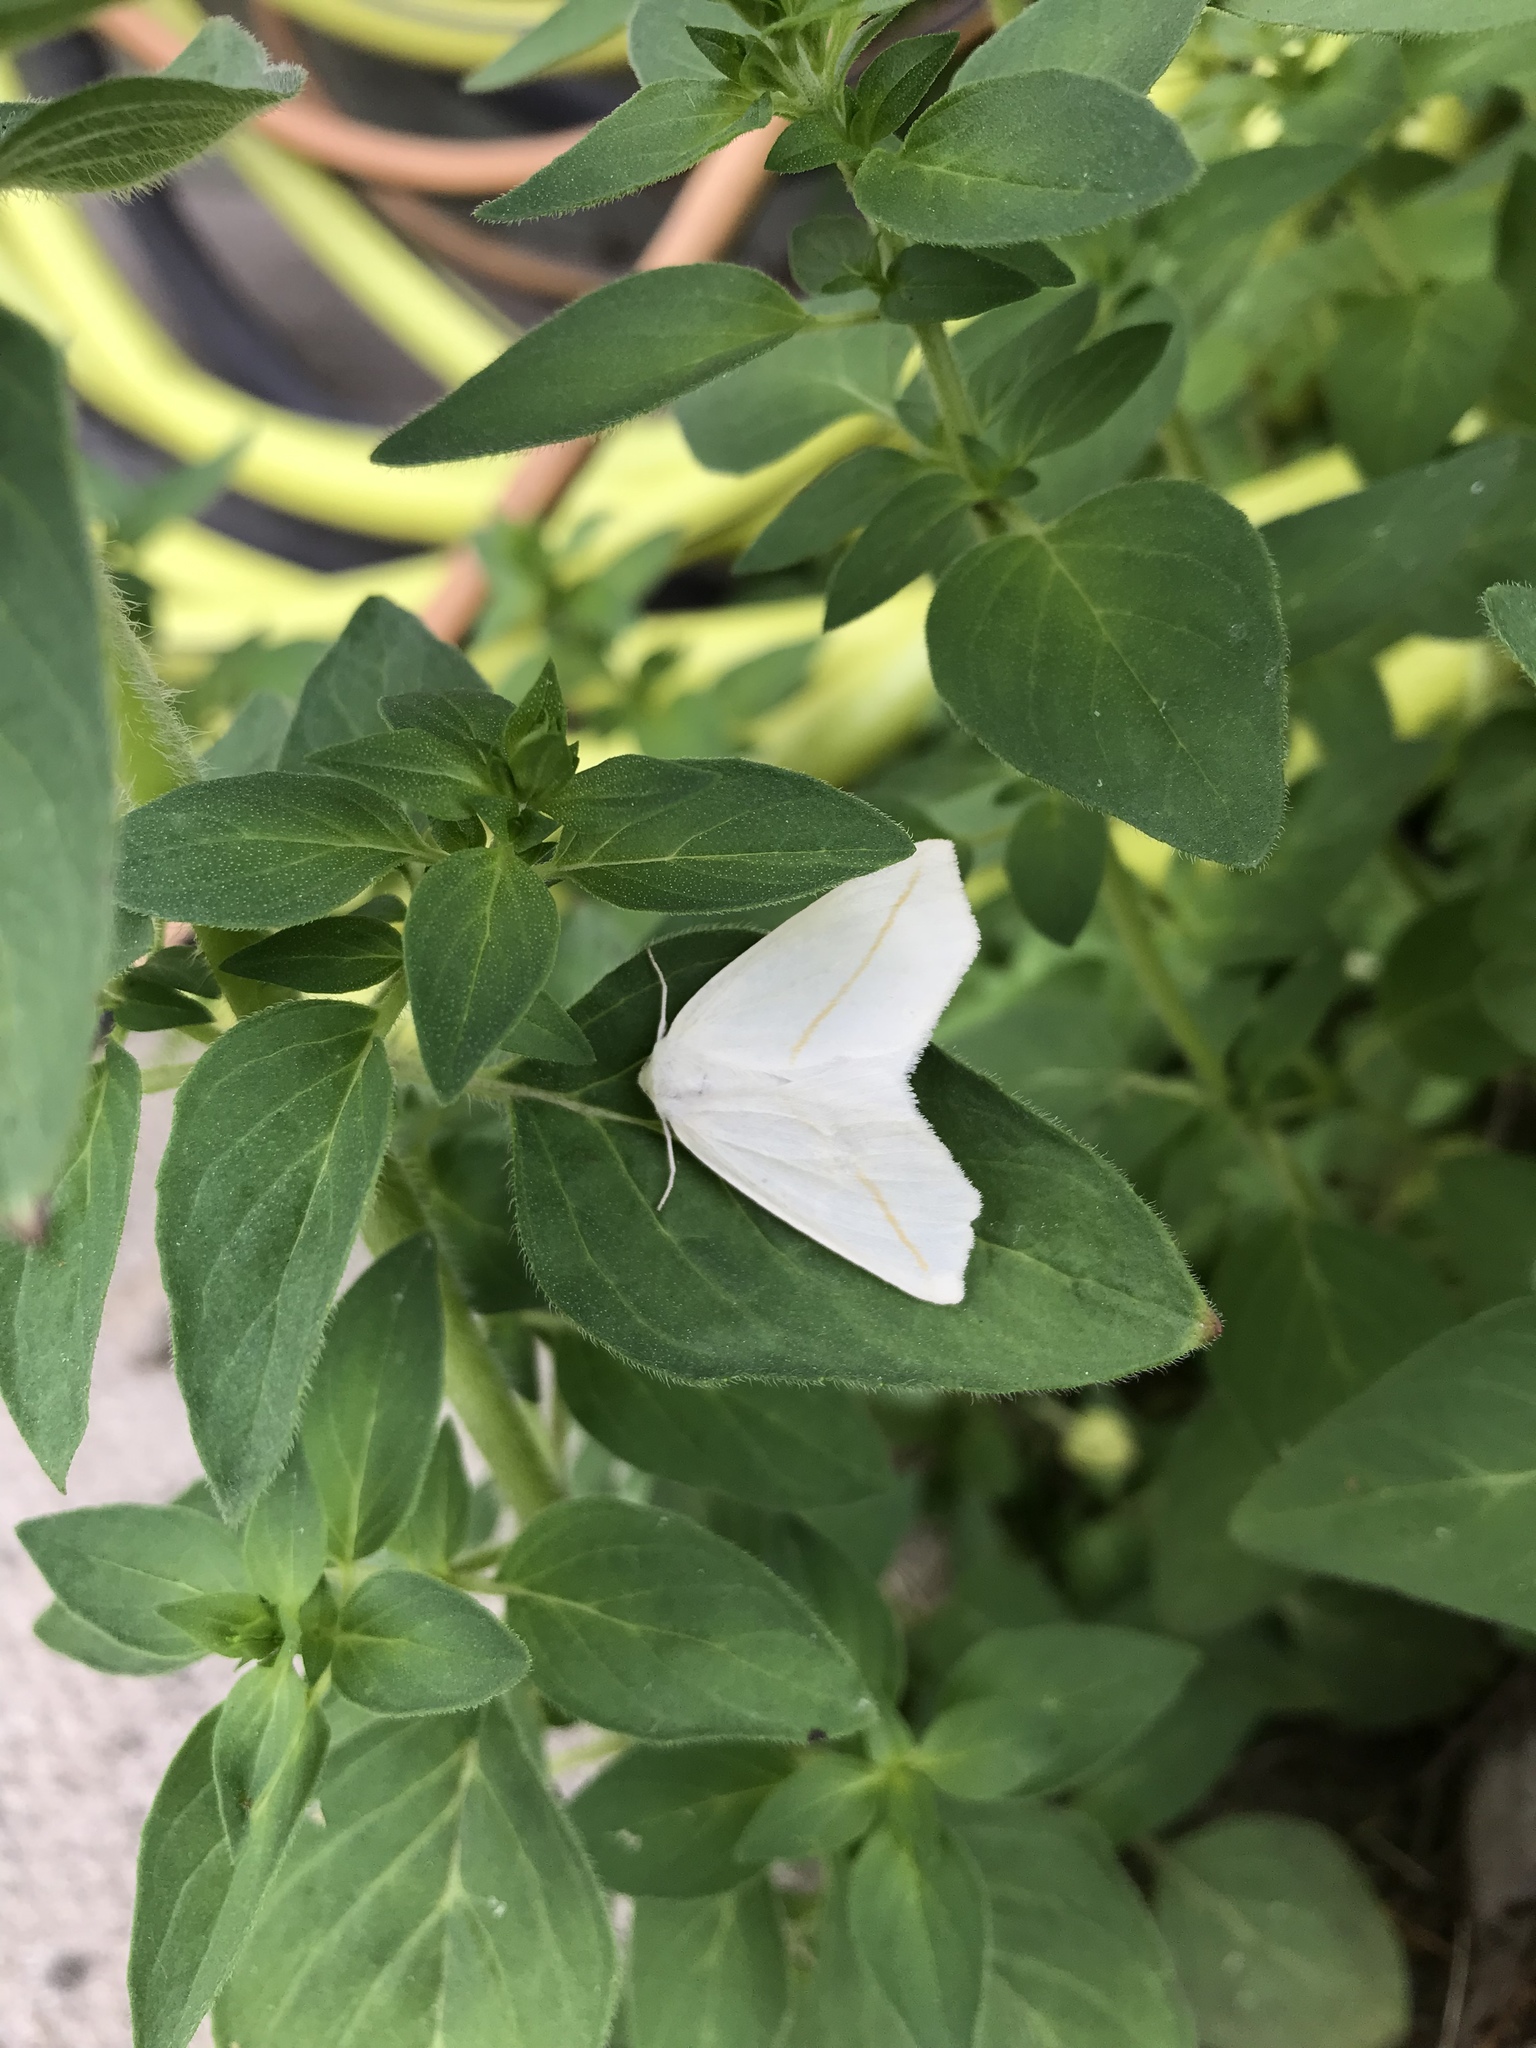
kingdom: Animalia
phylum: Arthropoda
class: Insecta
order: Lepidoptera
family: Geometridae
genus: Tetracis
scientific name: Tetracis cachexiata
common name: White slant-line
